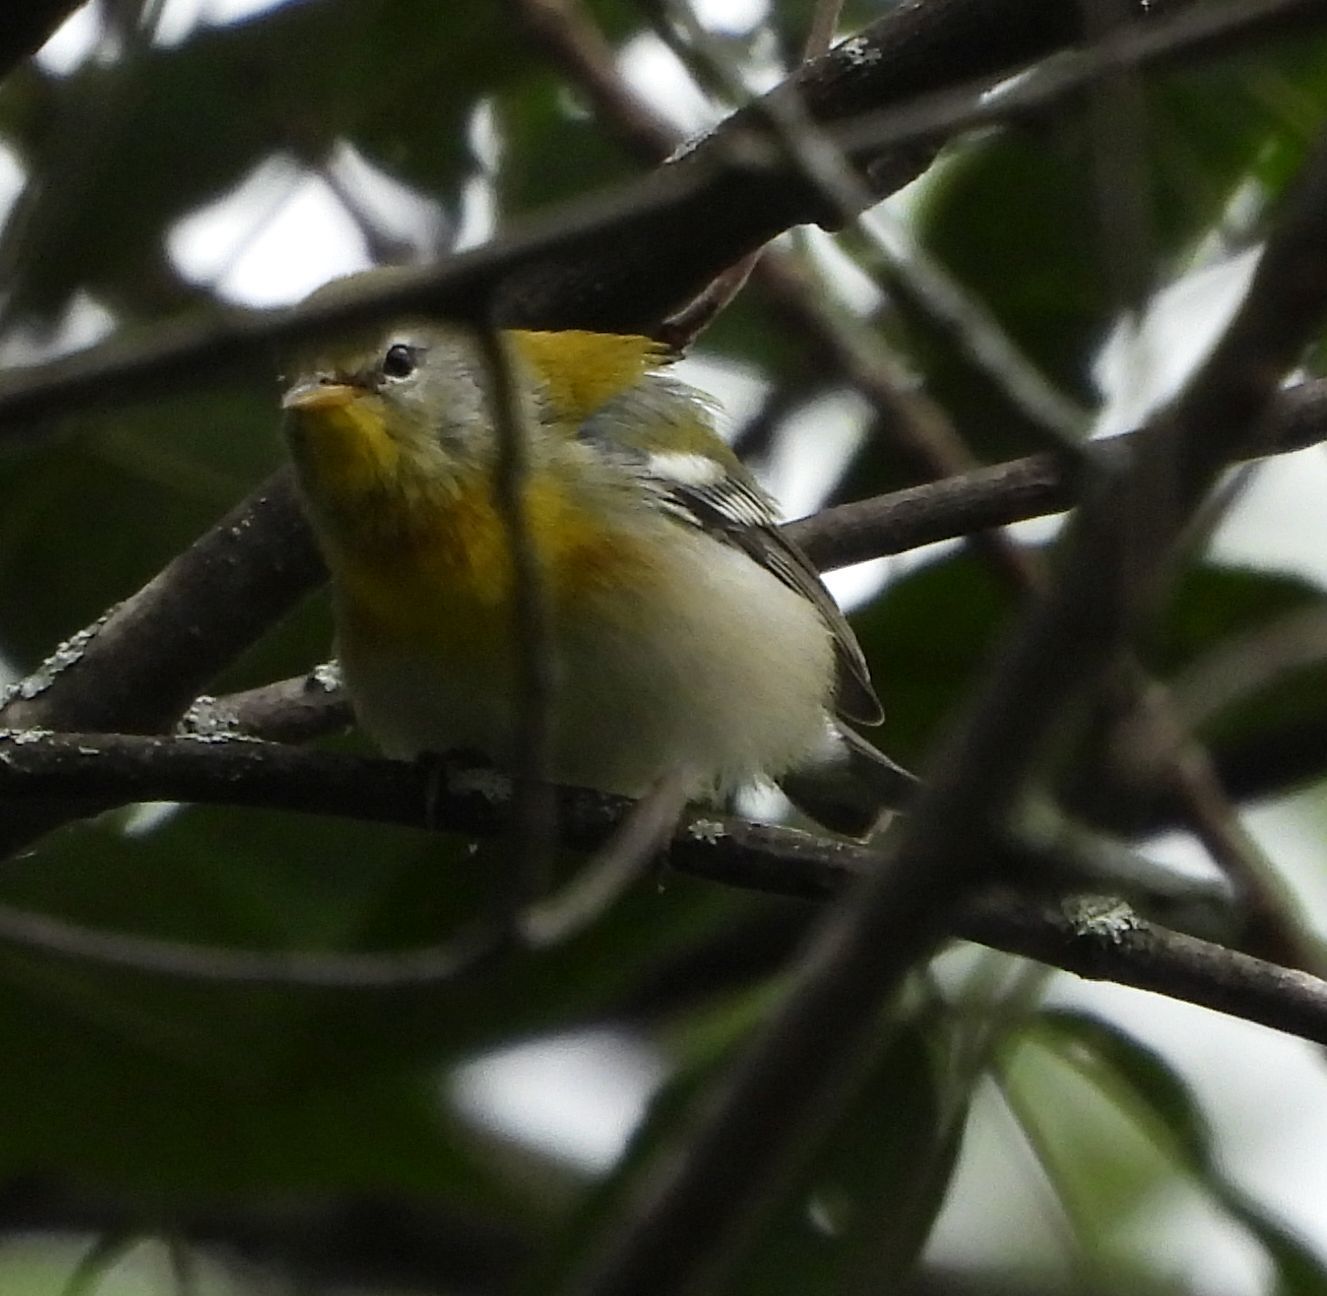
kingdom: Animalia
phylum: Chordata
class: Aves
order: Passeriformes
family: Parulidae
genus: Setophaga
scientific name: Setophaga americana
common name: Northern parula
